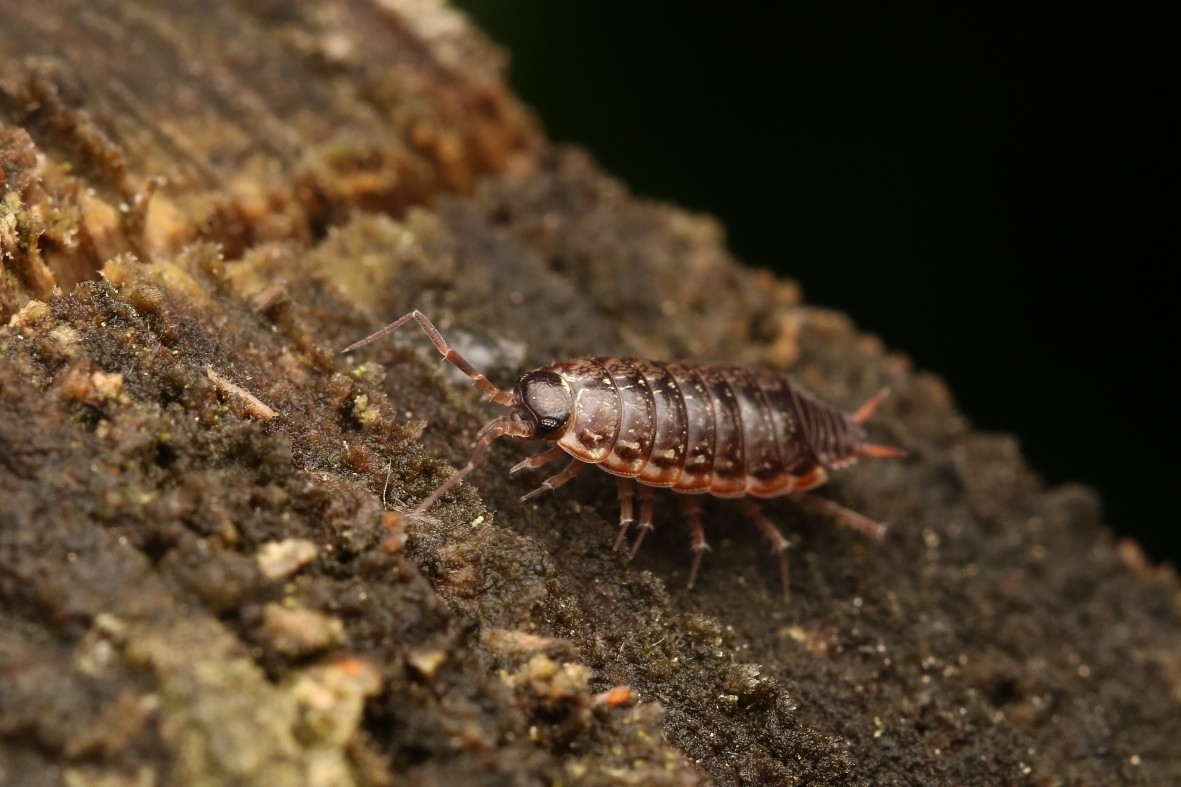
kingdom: Animalia
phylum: Arthropoda
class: Malacostraca
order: Isopoda
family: Philosciidae
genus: Philoscia
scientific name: Philoscia muscorum
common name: Common striped woodlouse
